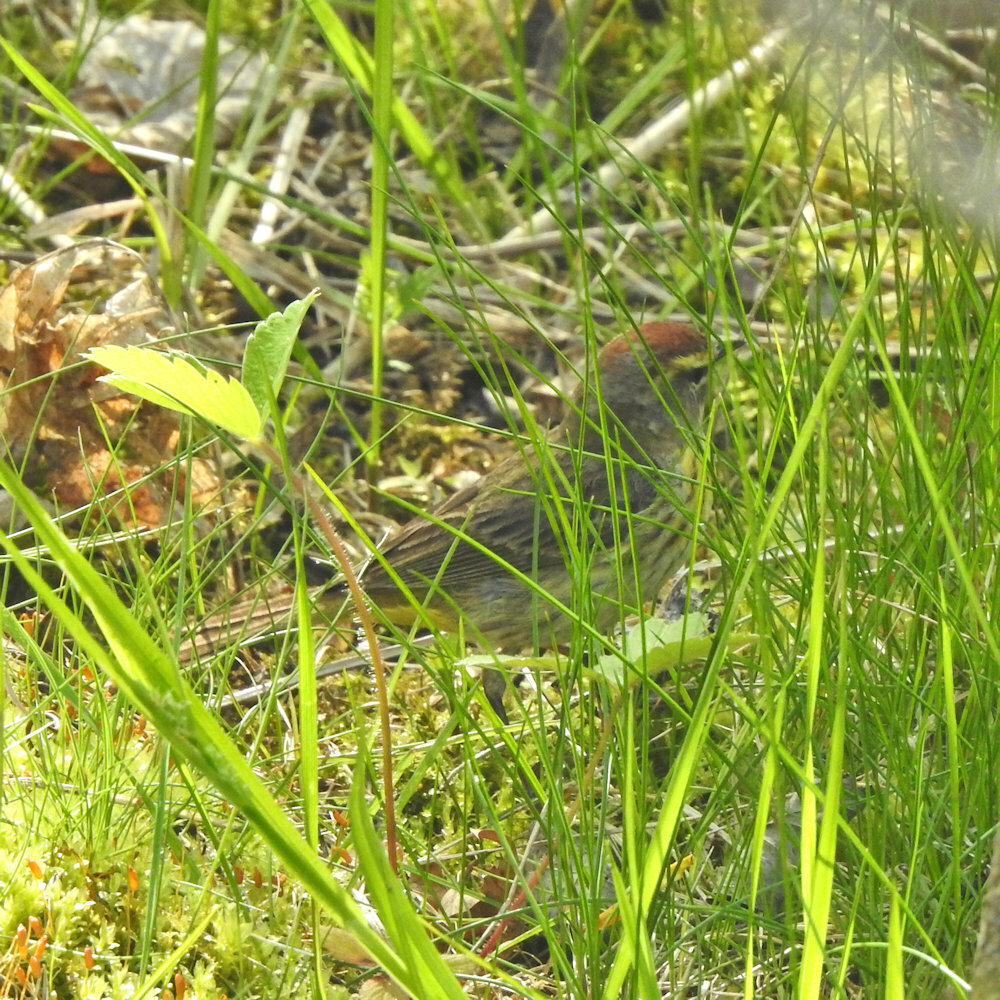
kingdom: Animalia
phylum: Chordata
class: Aves
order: Passeriformes
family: Parulidae
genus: Setophaga
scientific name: Setophaga palmarum
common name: Palm warbler
